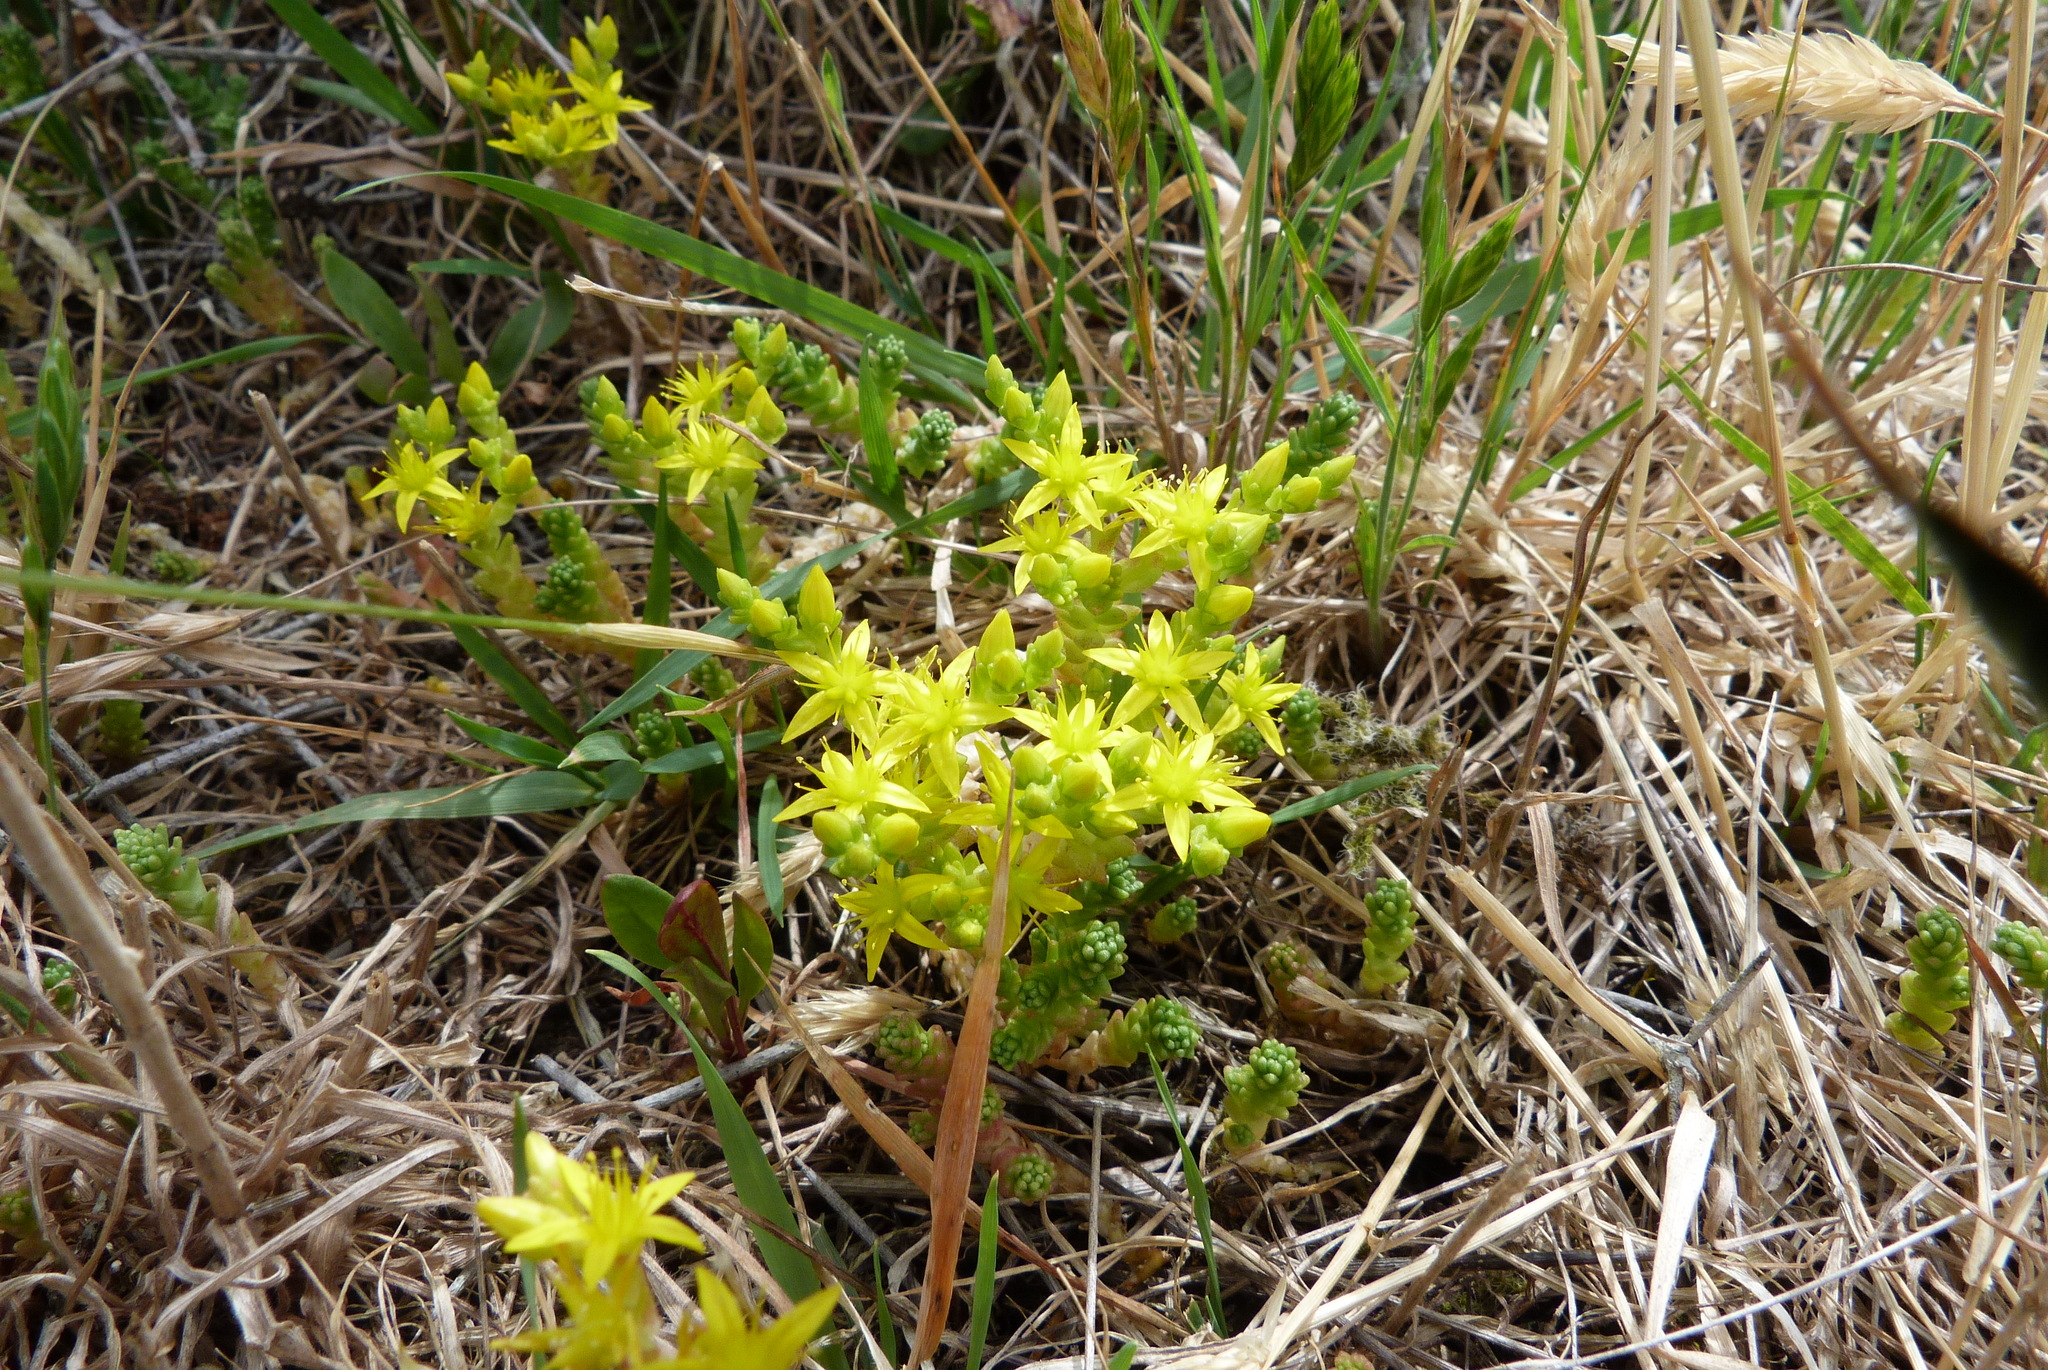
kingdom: Plantae
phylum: Tracheophyta
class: Magnoliopsida
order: Saxifragales
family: Crassulaceae
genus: Sedum
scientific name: Sedum acre
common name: Biting stonecrop
